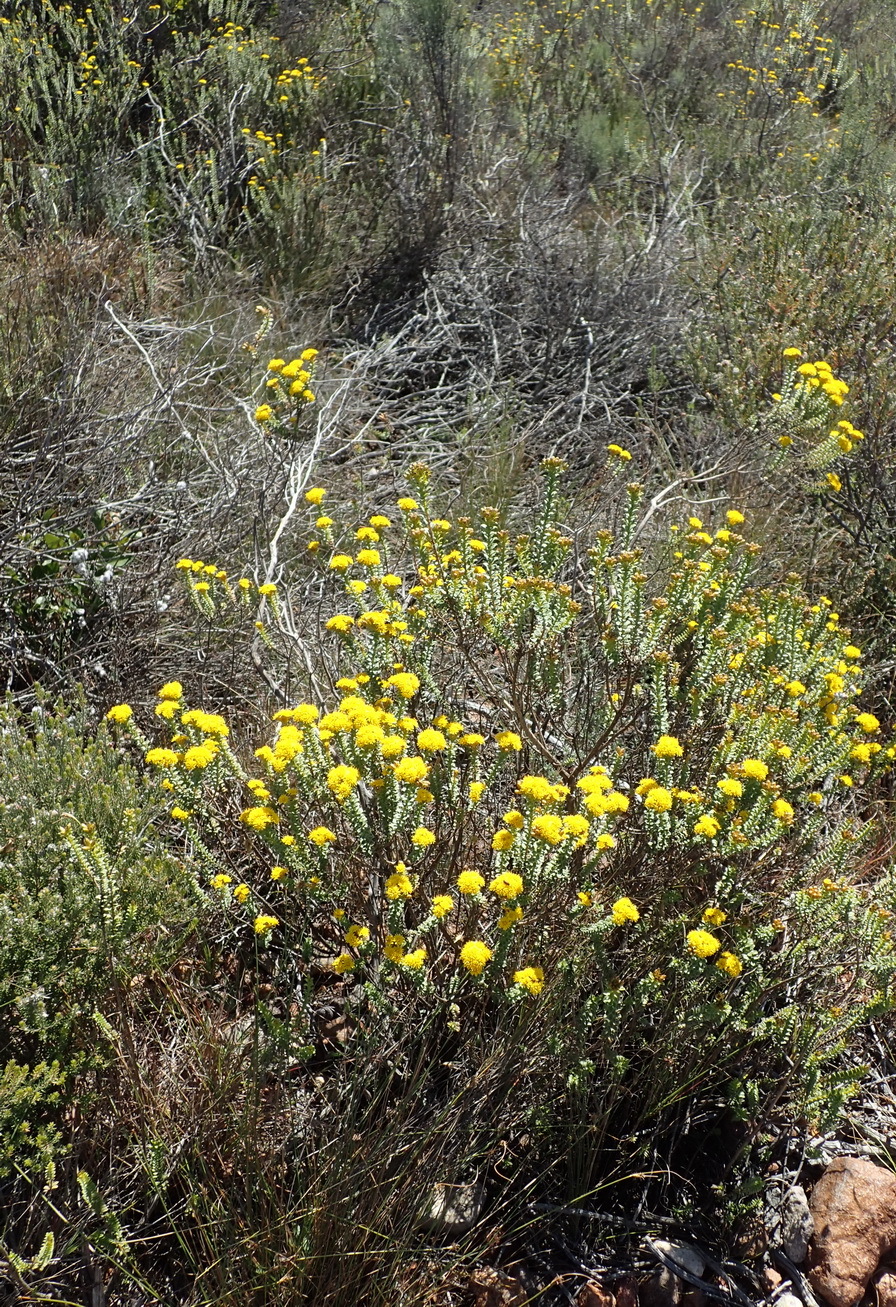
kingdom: Plantae
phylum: Tracheophyta
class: Magnoliopsida
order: Asterales
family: Asteraceae
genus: Oedera
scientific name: Oedera squarrosa
